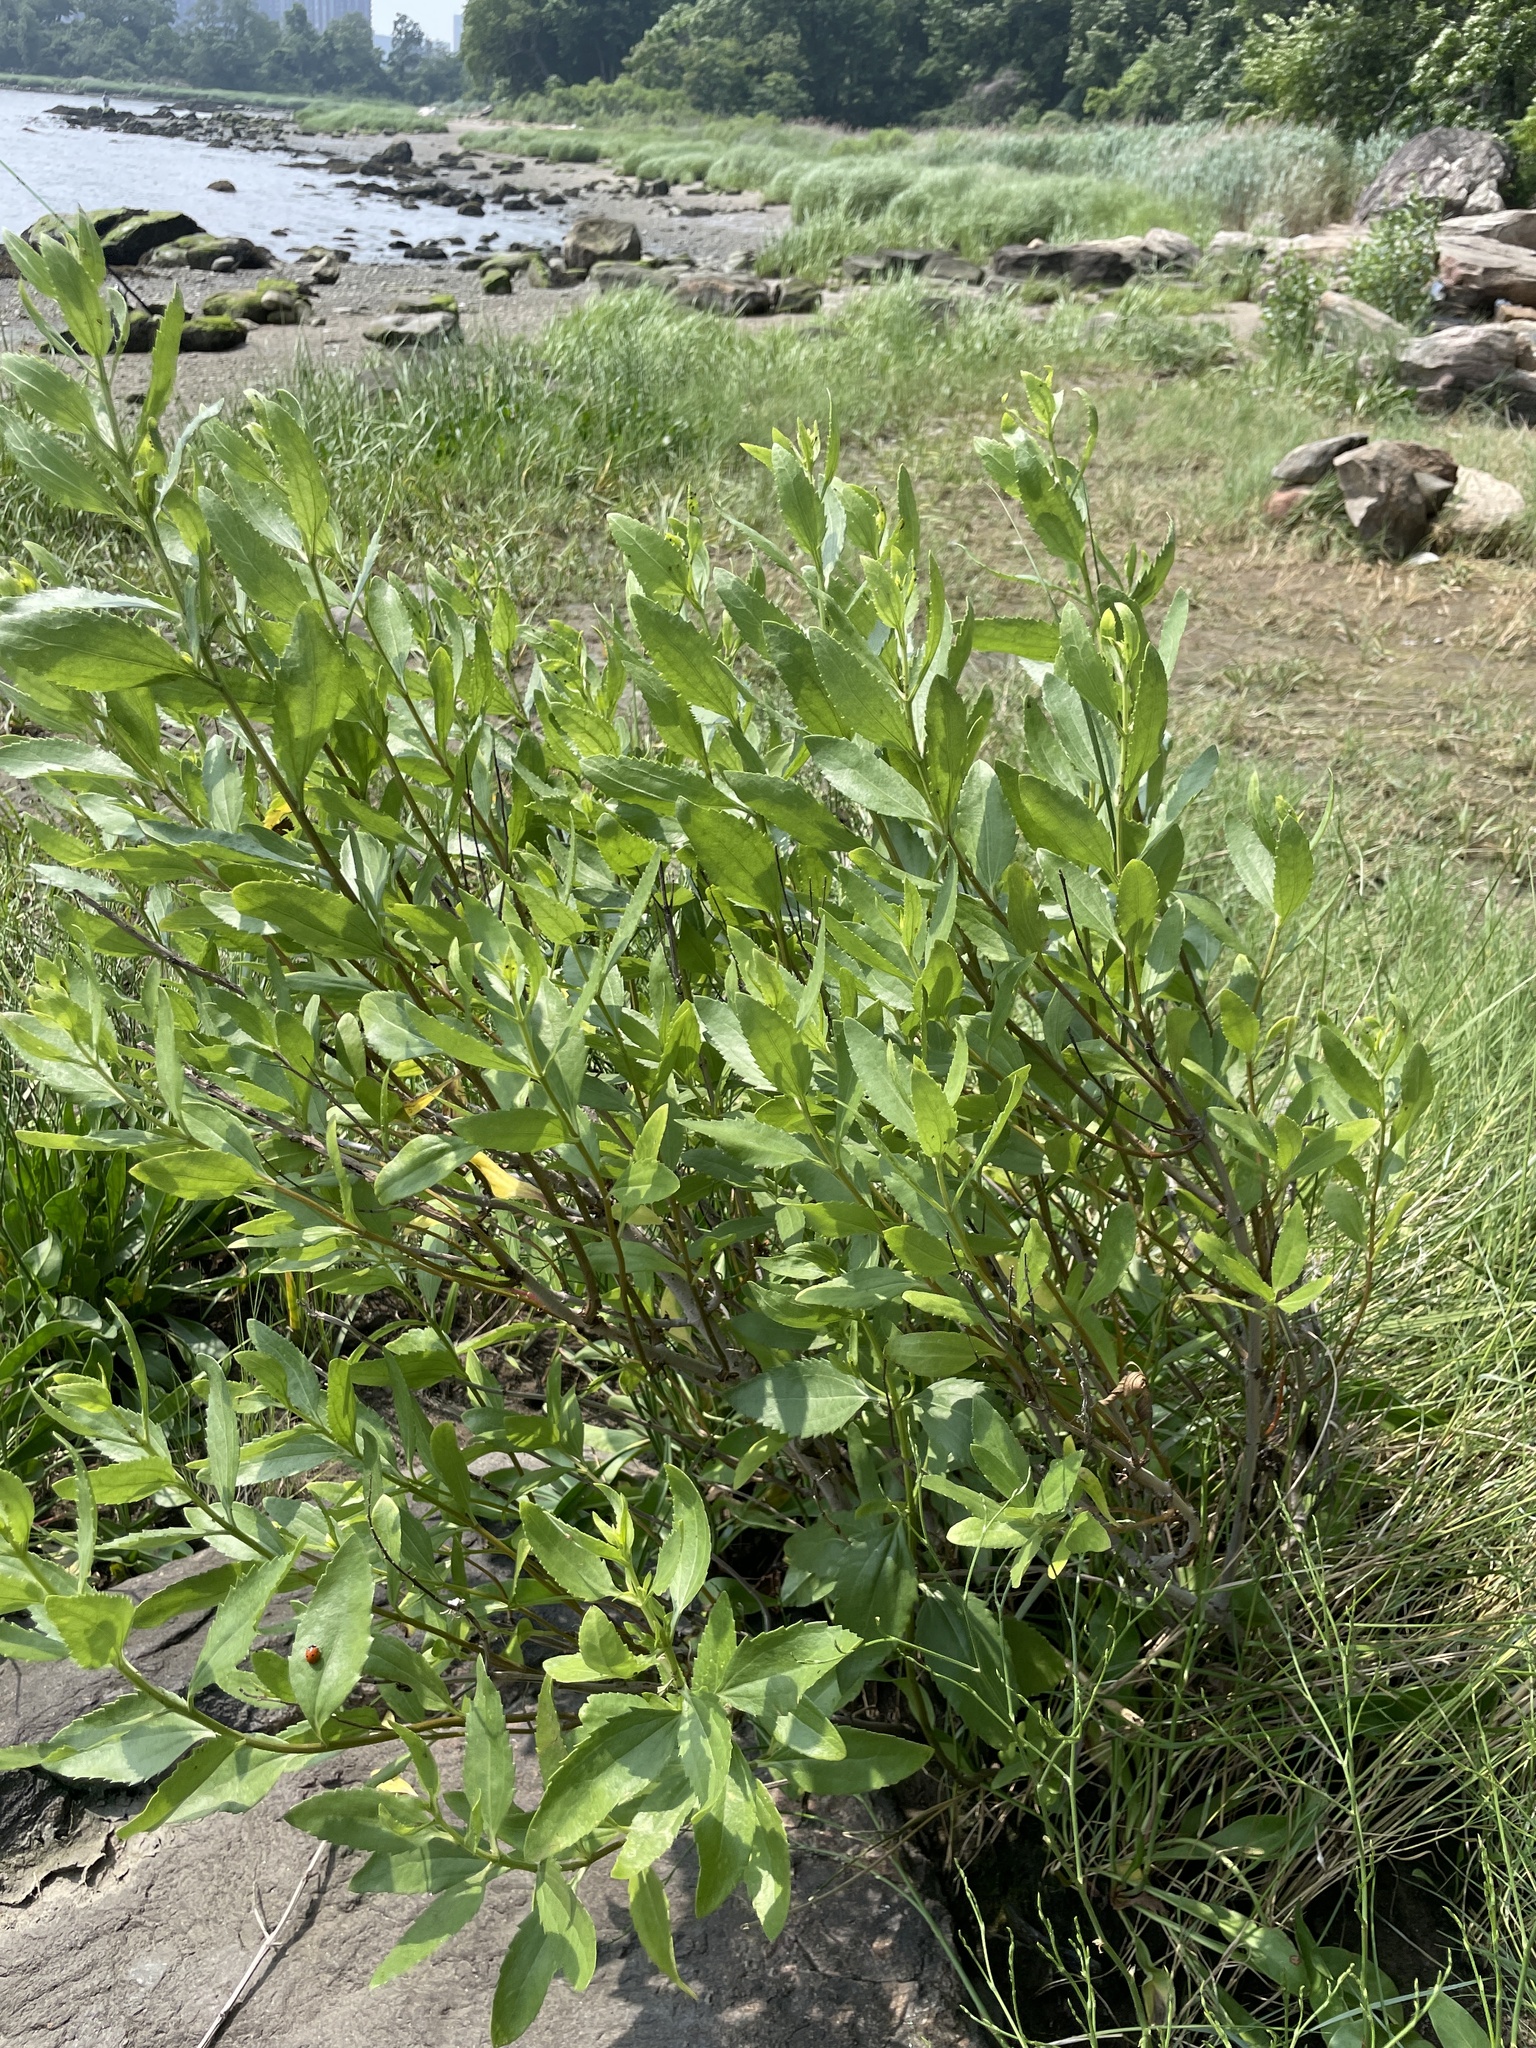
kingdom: Plantae
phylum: Tracheophyta
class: Magnoliopsida
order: Asterales
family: Asteraceae
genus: Iva
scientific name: Iva frutescens
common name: Big-leaved marsh-elder
